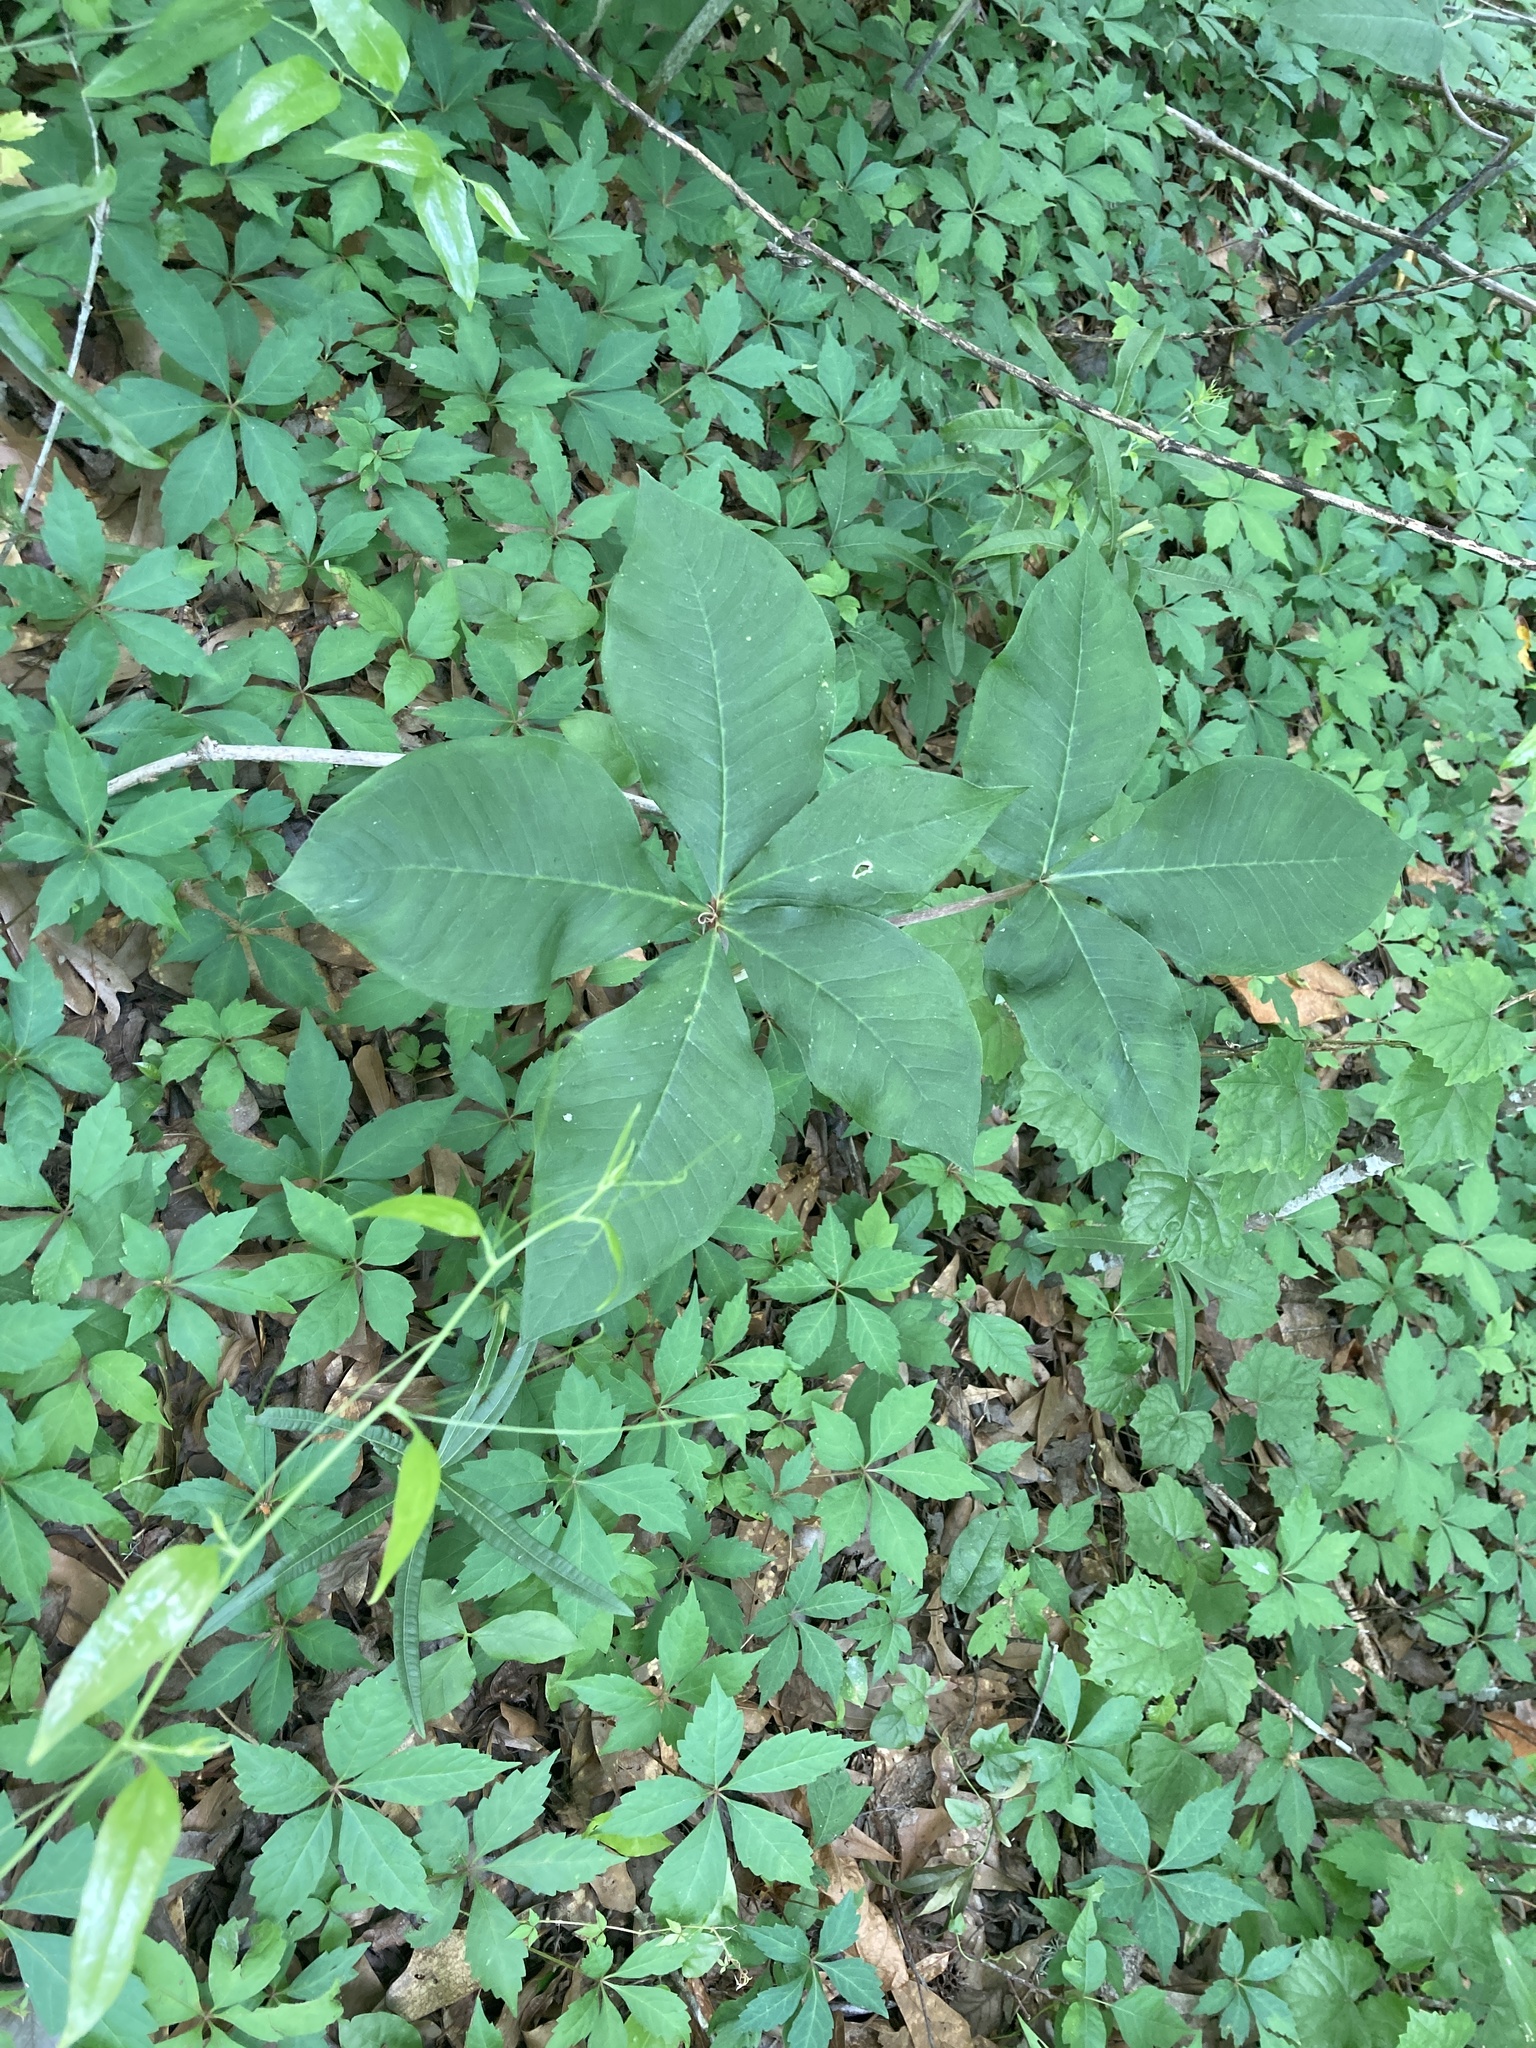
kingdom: Plantae
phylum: Tracheophyta
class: Liliopsida
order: Alismatales
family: Araceae
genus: Arisaema
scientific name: Arisaema quinatum
